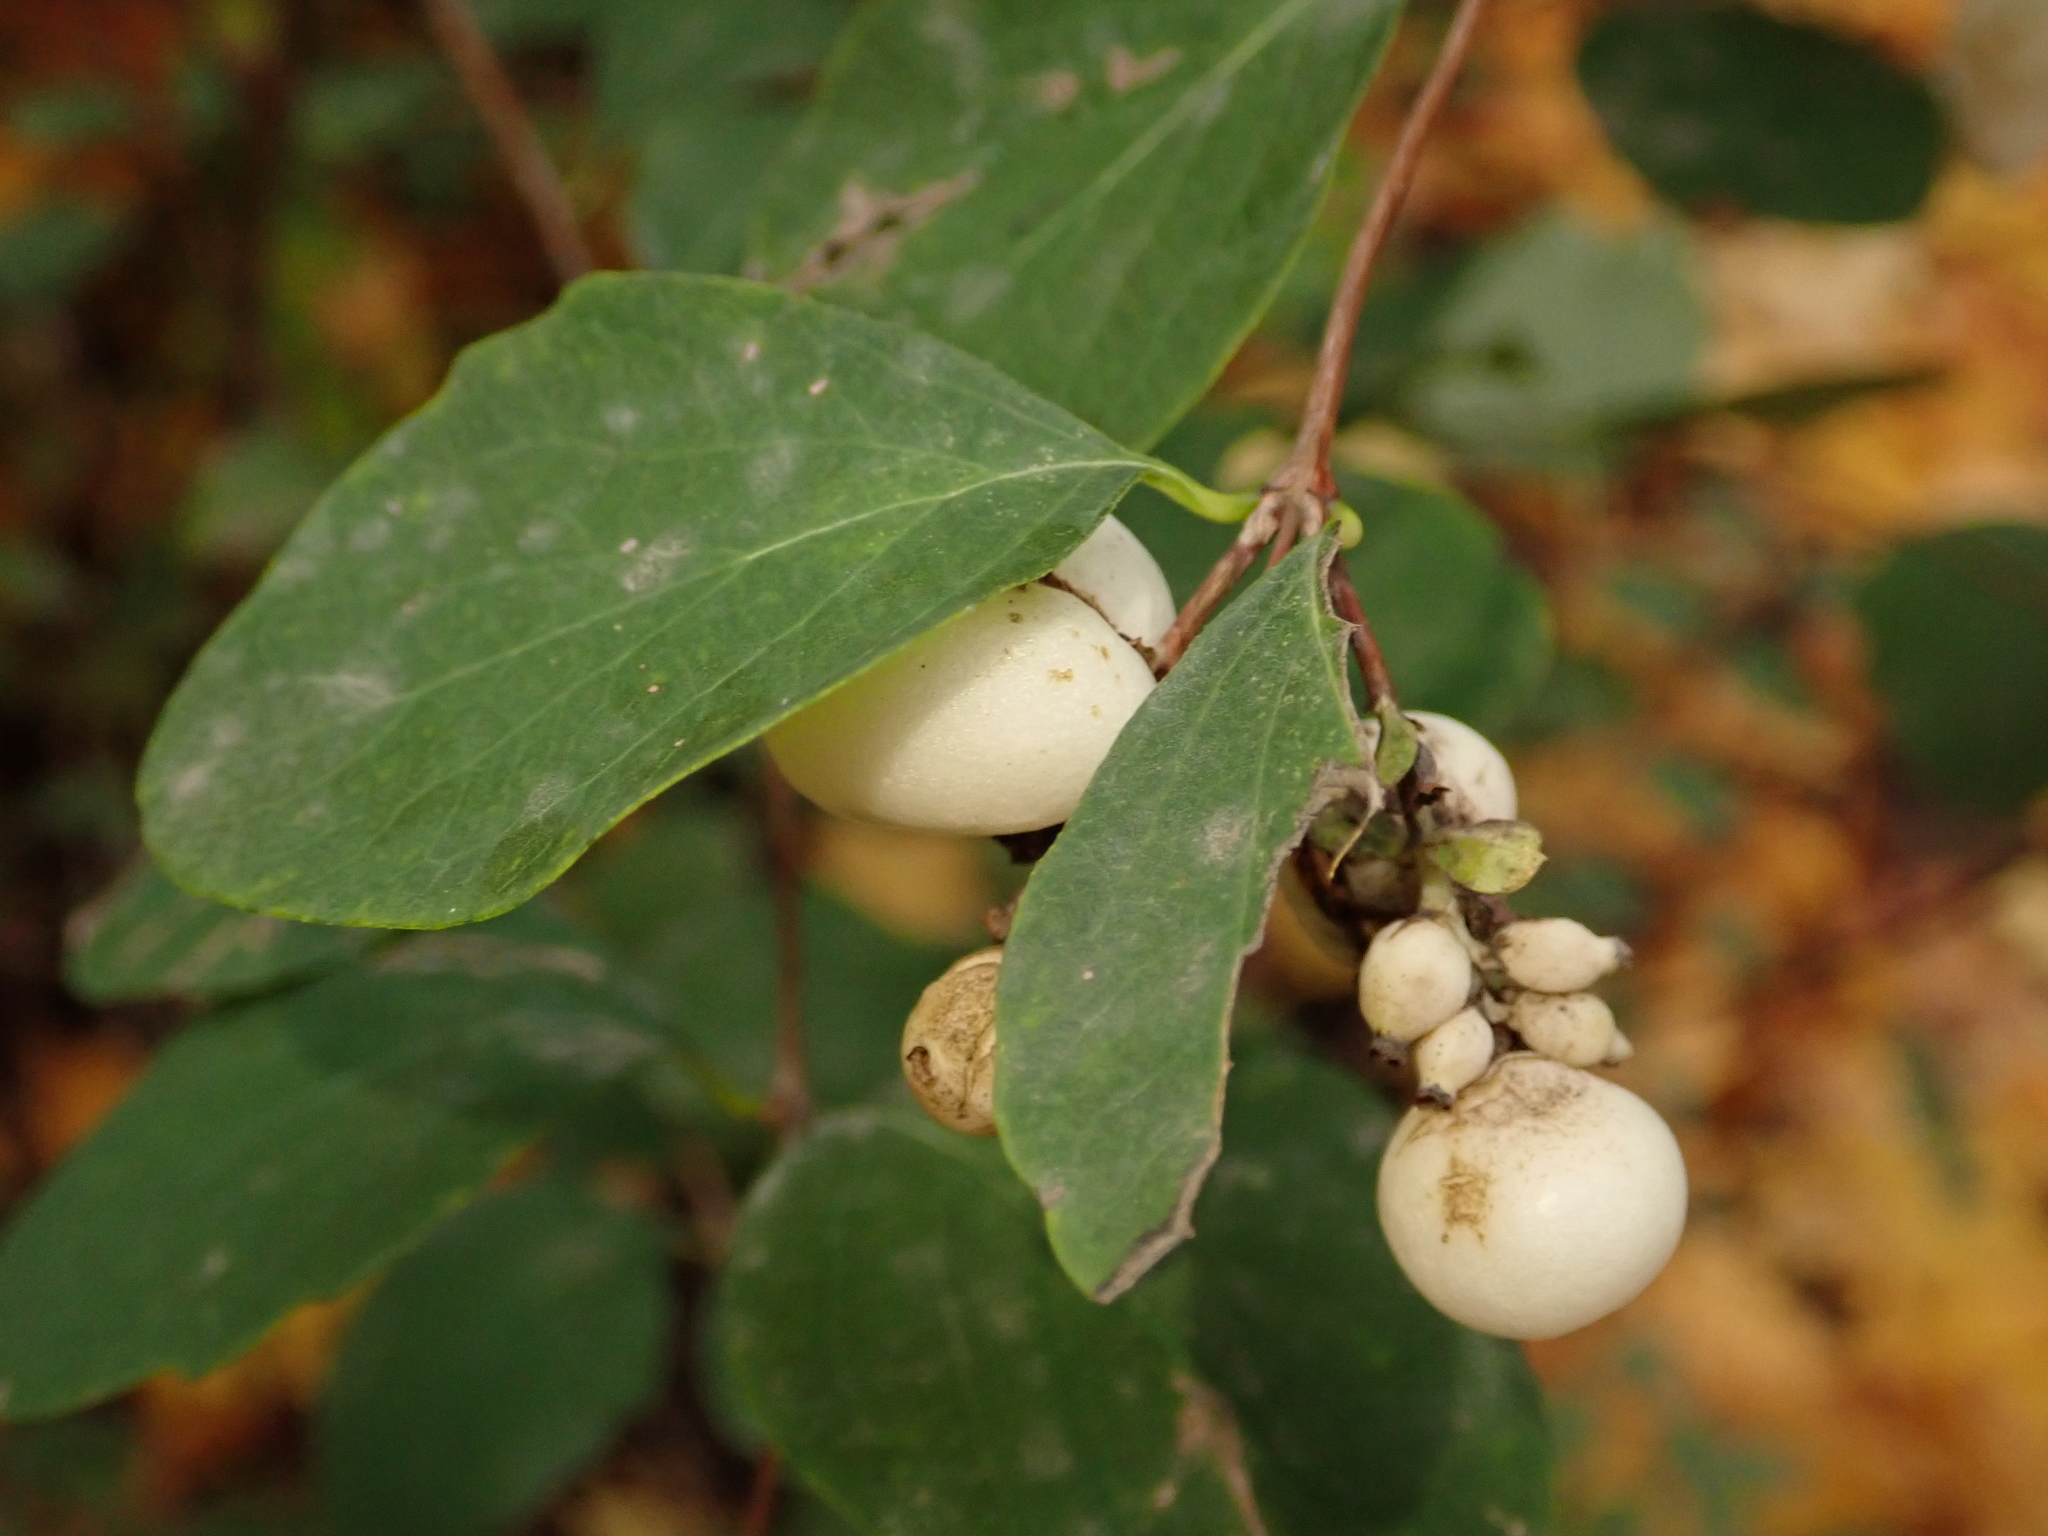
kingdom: Plantae
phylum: Tracheophyta
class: Magnoliopsida
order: Dipsacales
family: Caprifoliaceae
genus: Symphoricarpos
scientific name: Symphoricarpos albus
